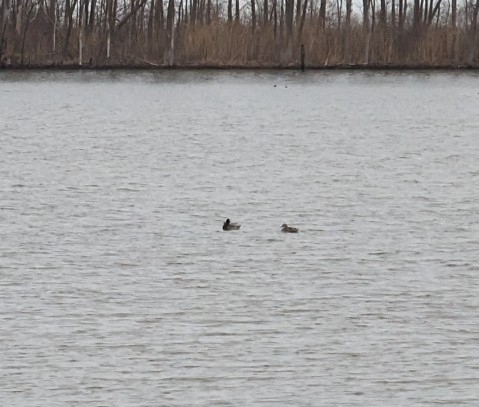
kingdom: Animalia
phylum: Chordata
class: Aves
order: Anseriformes
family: Anatidae
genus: Anas
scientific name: Anas platyrhynchos
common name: Mallard
